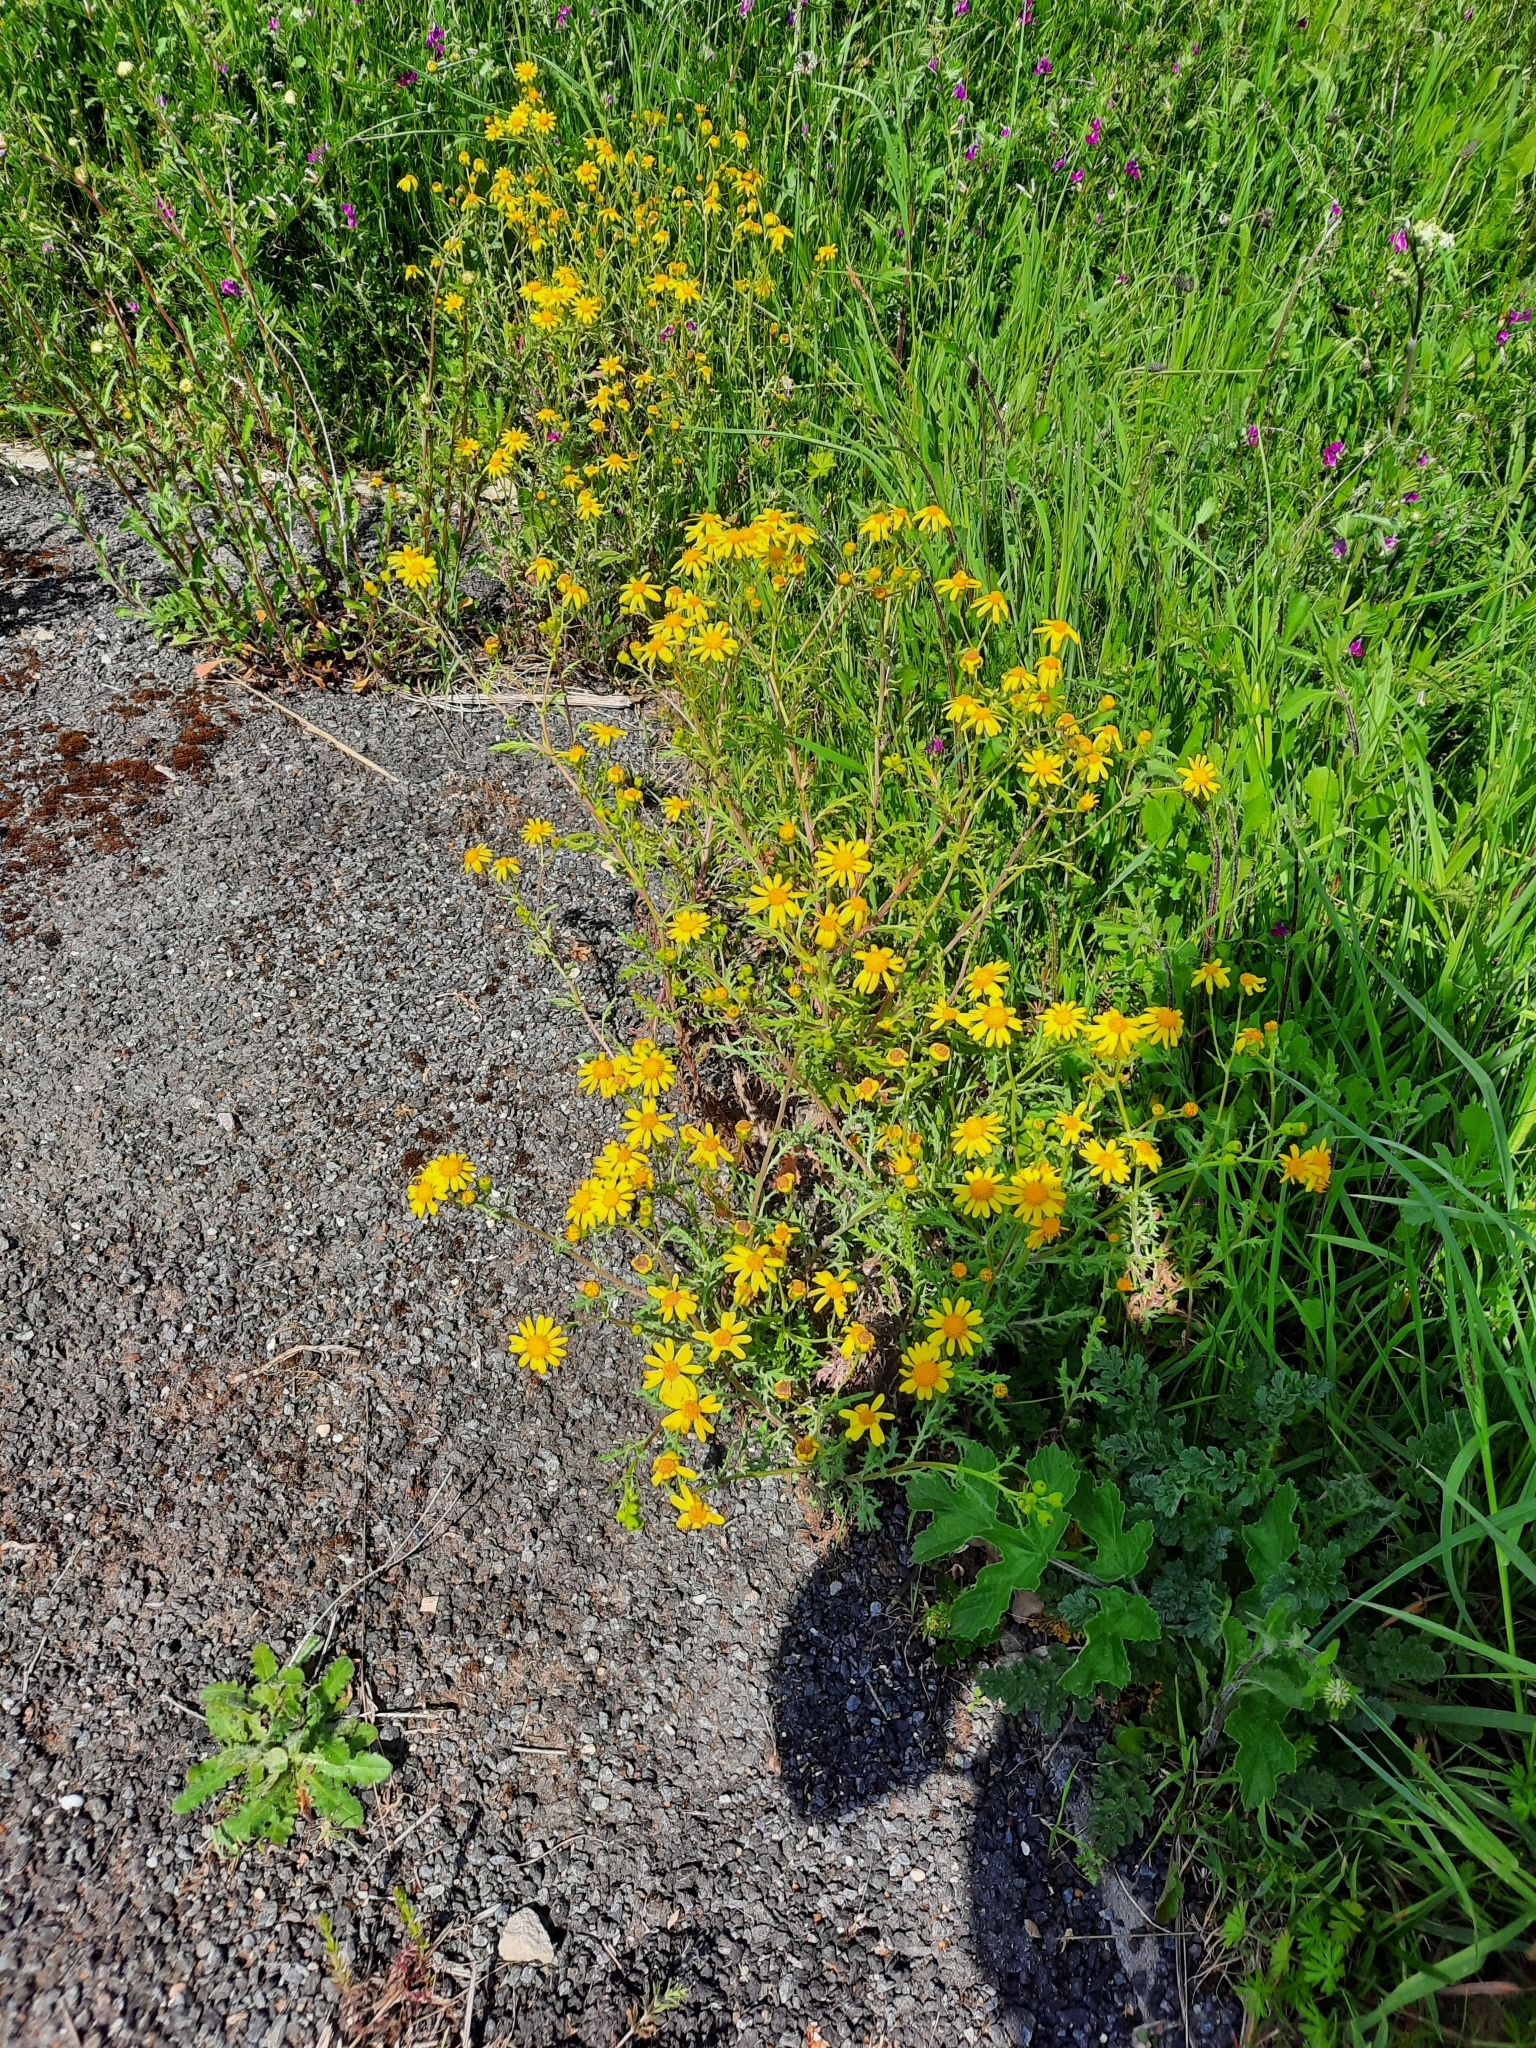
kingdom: Plantae
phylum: Tracheophyta
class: Magnoliopsida
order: Asterales
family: Asteraceae
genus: Jacobaea
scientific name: Jacobaea vulgaris
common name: Stinking willie
